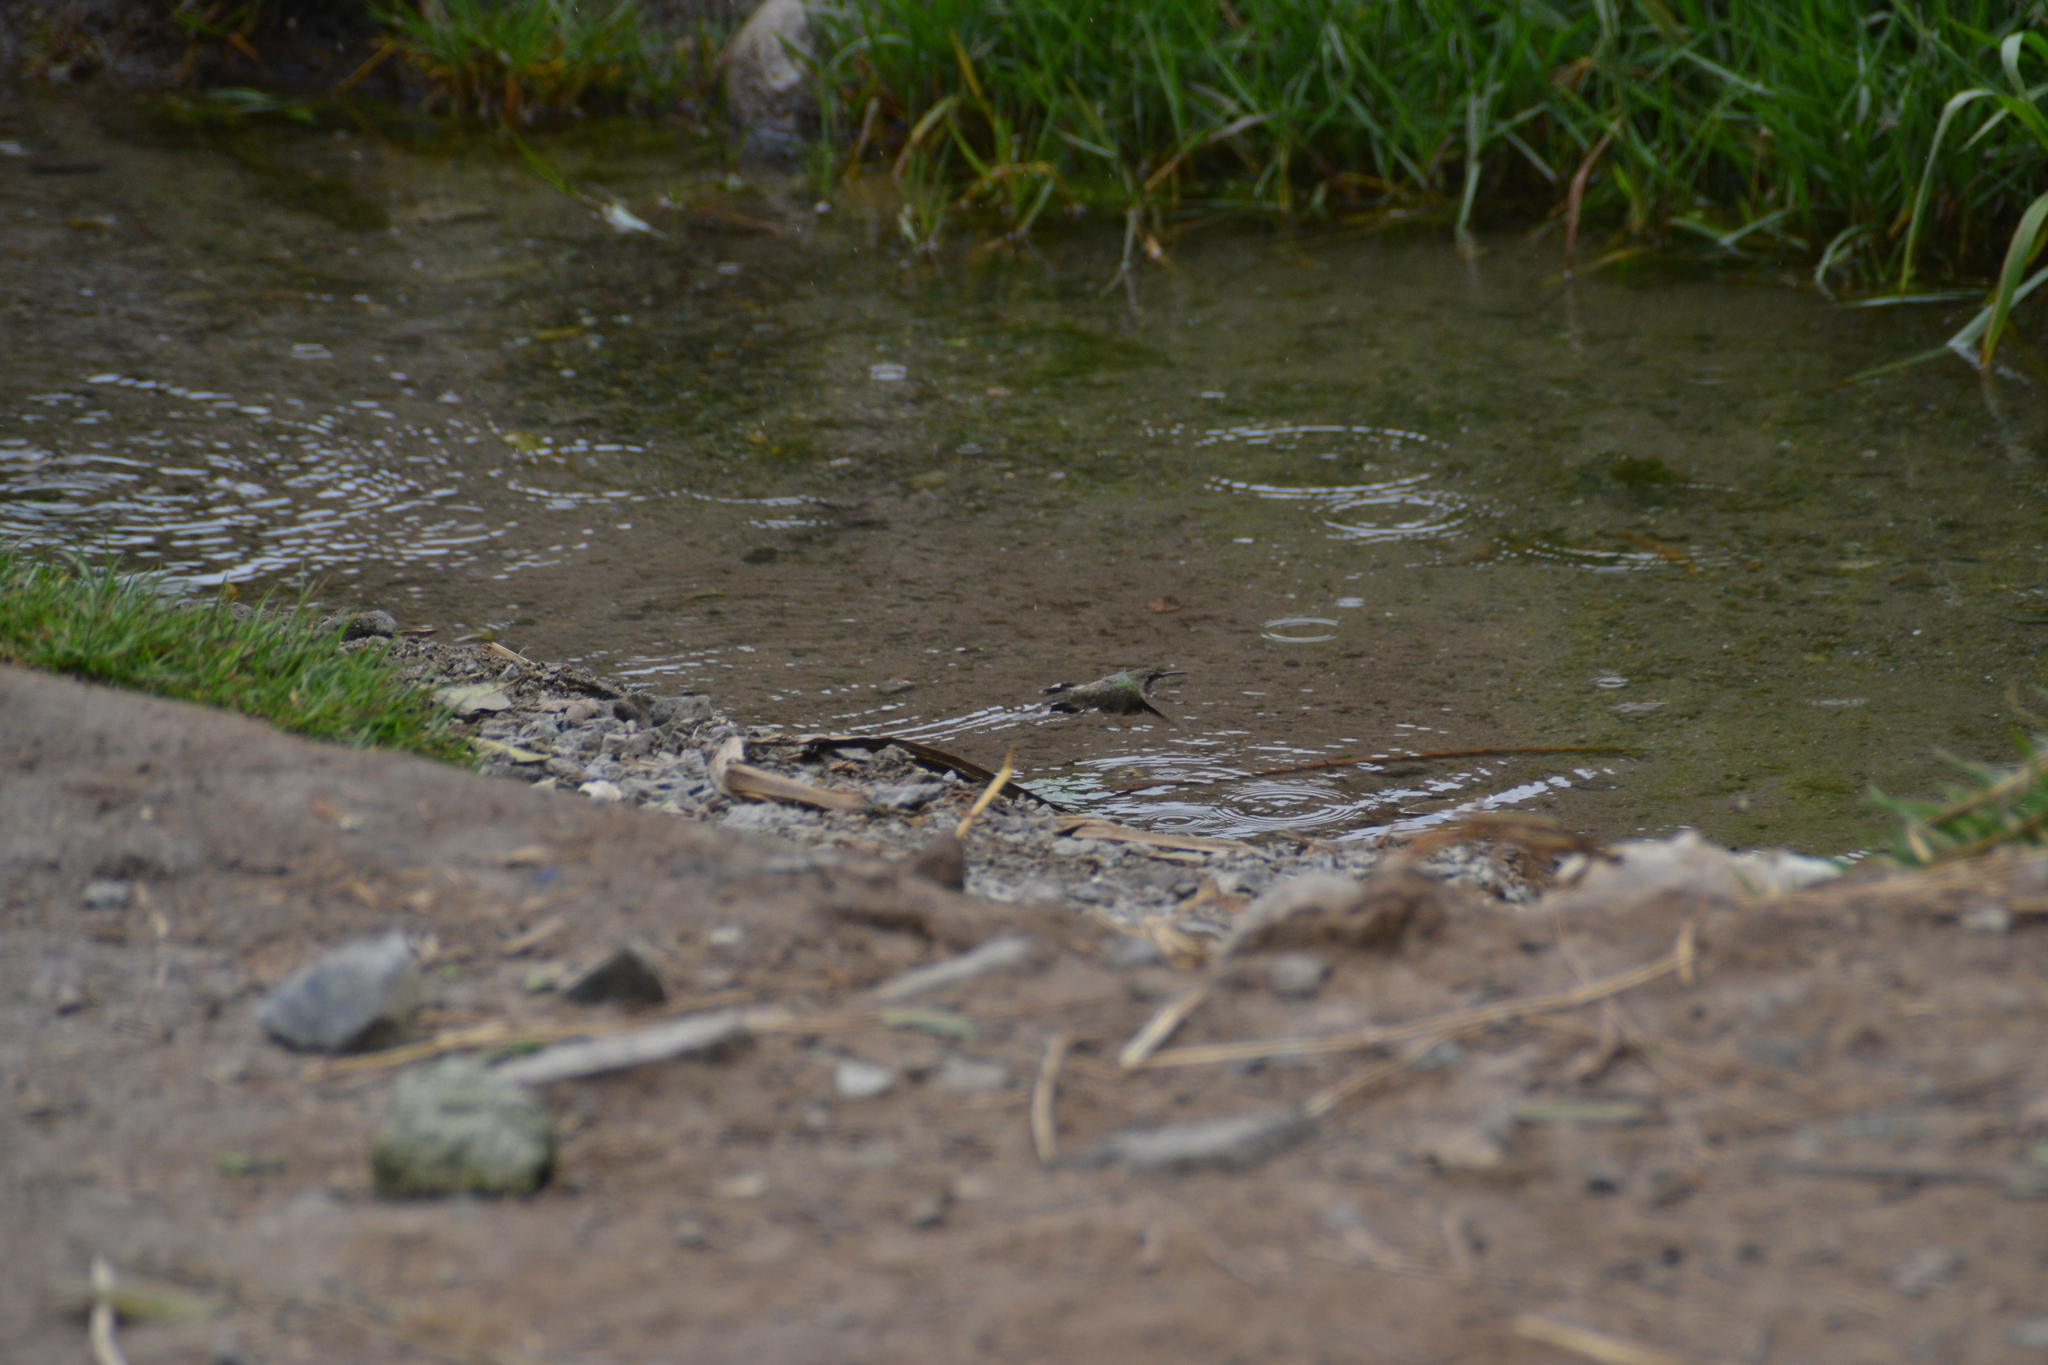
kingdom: Animalia
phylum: Chordata
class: Aves
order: Apodiformes
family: Trochilidae
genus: Myrtis
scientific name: Myrtis fanny
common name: Purple-collared woodstar
